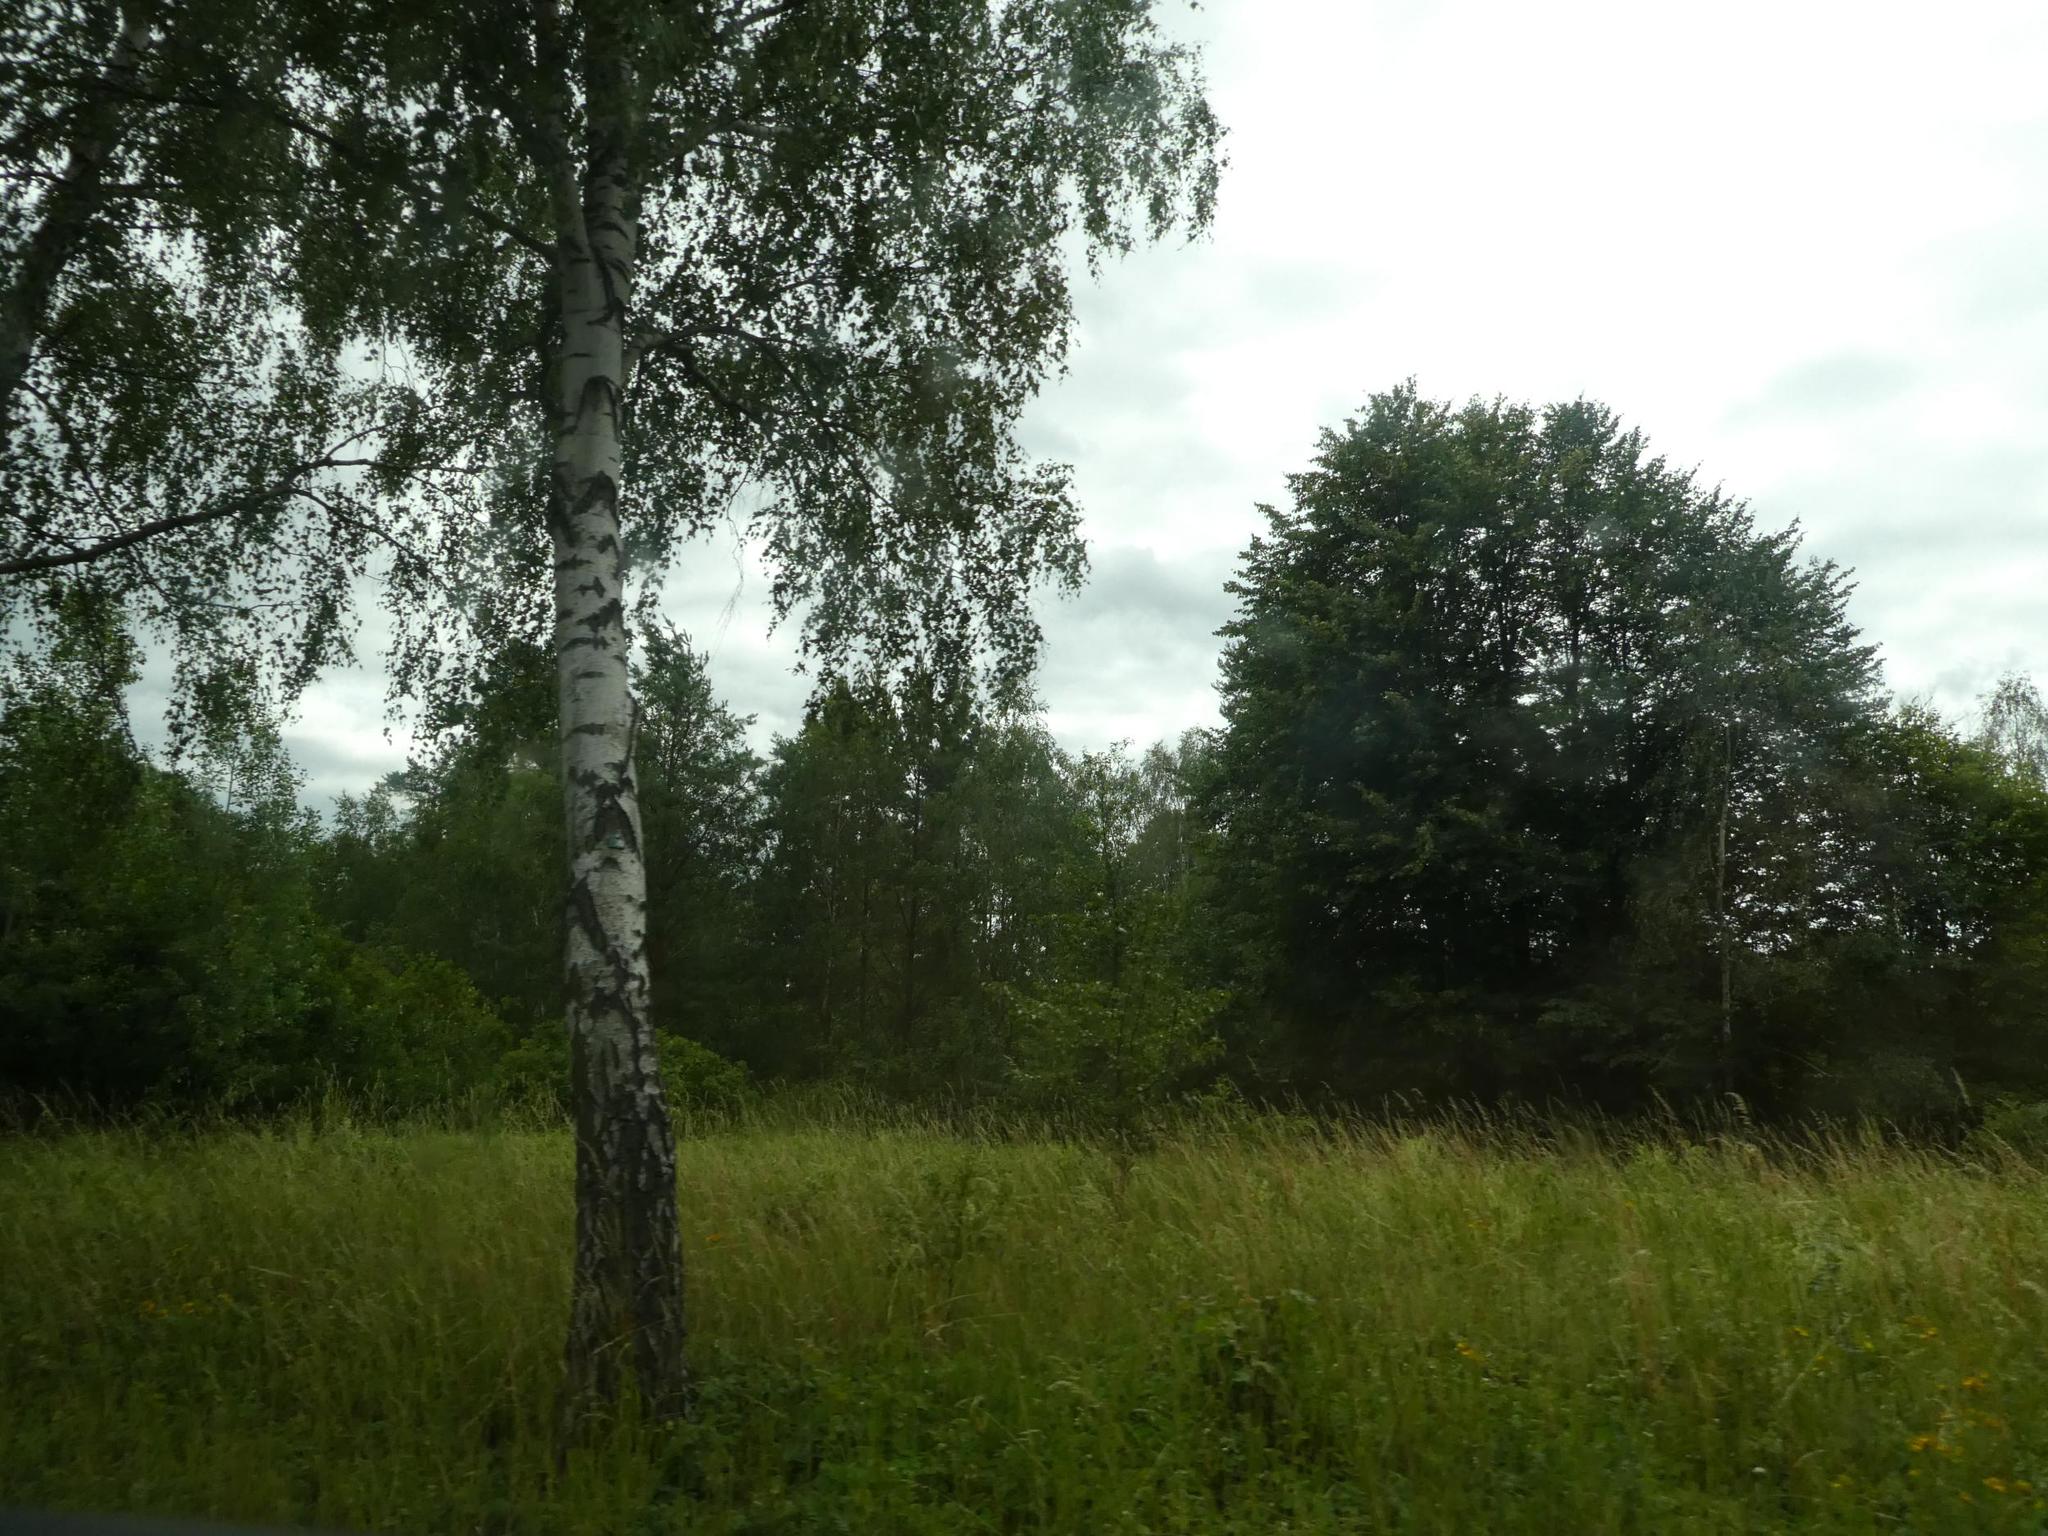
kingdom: Plantae
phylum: Tracheophyta
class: Magnoliopsida
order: Fagales
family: Betulaceae
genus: Betula
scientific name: Betula pendula
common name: Silver birch
